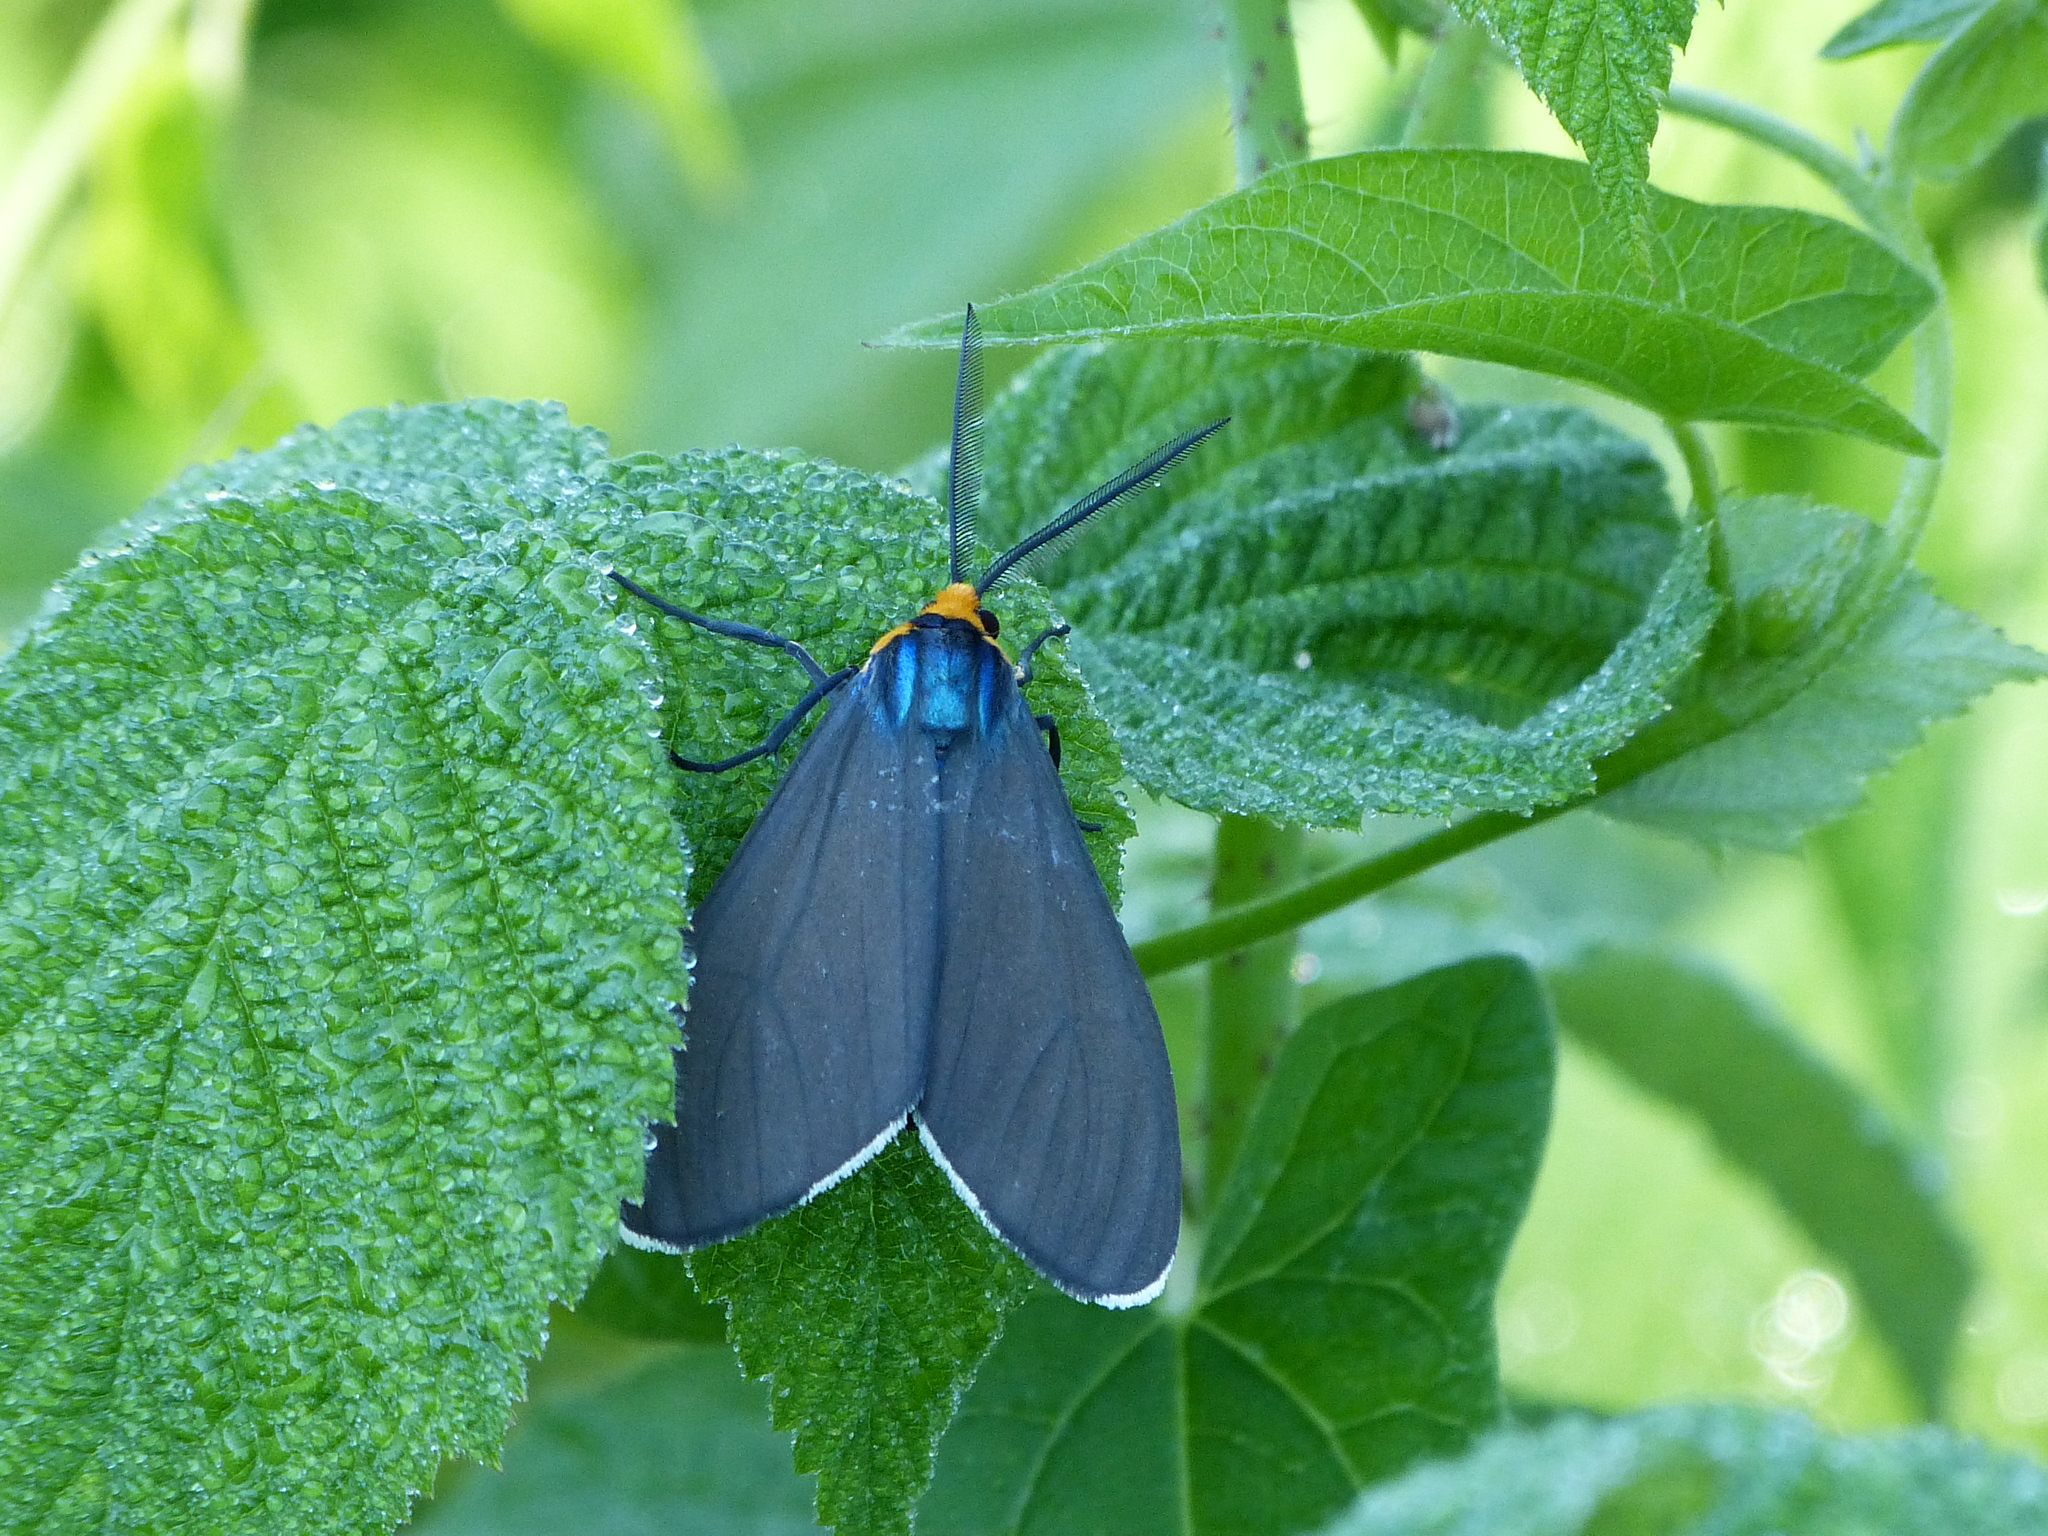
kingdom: Animalia
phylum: Arthropoda
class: Insecta
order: Lepidoptera
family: Erebidae
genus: Ctenucha
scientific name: Ctenucha virginica
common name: Virginia ctenucha moth
